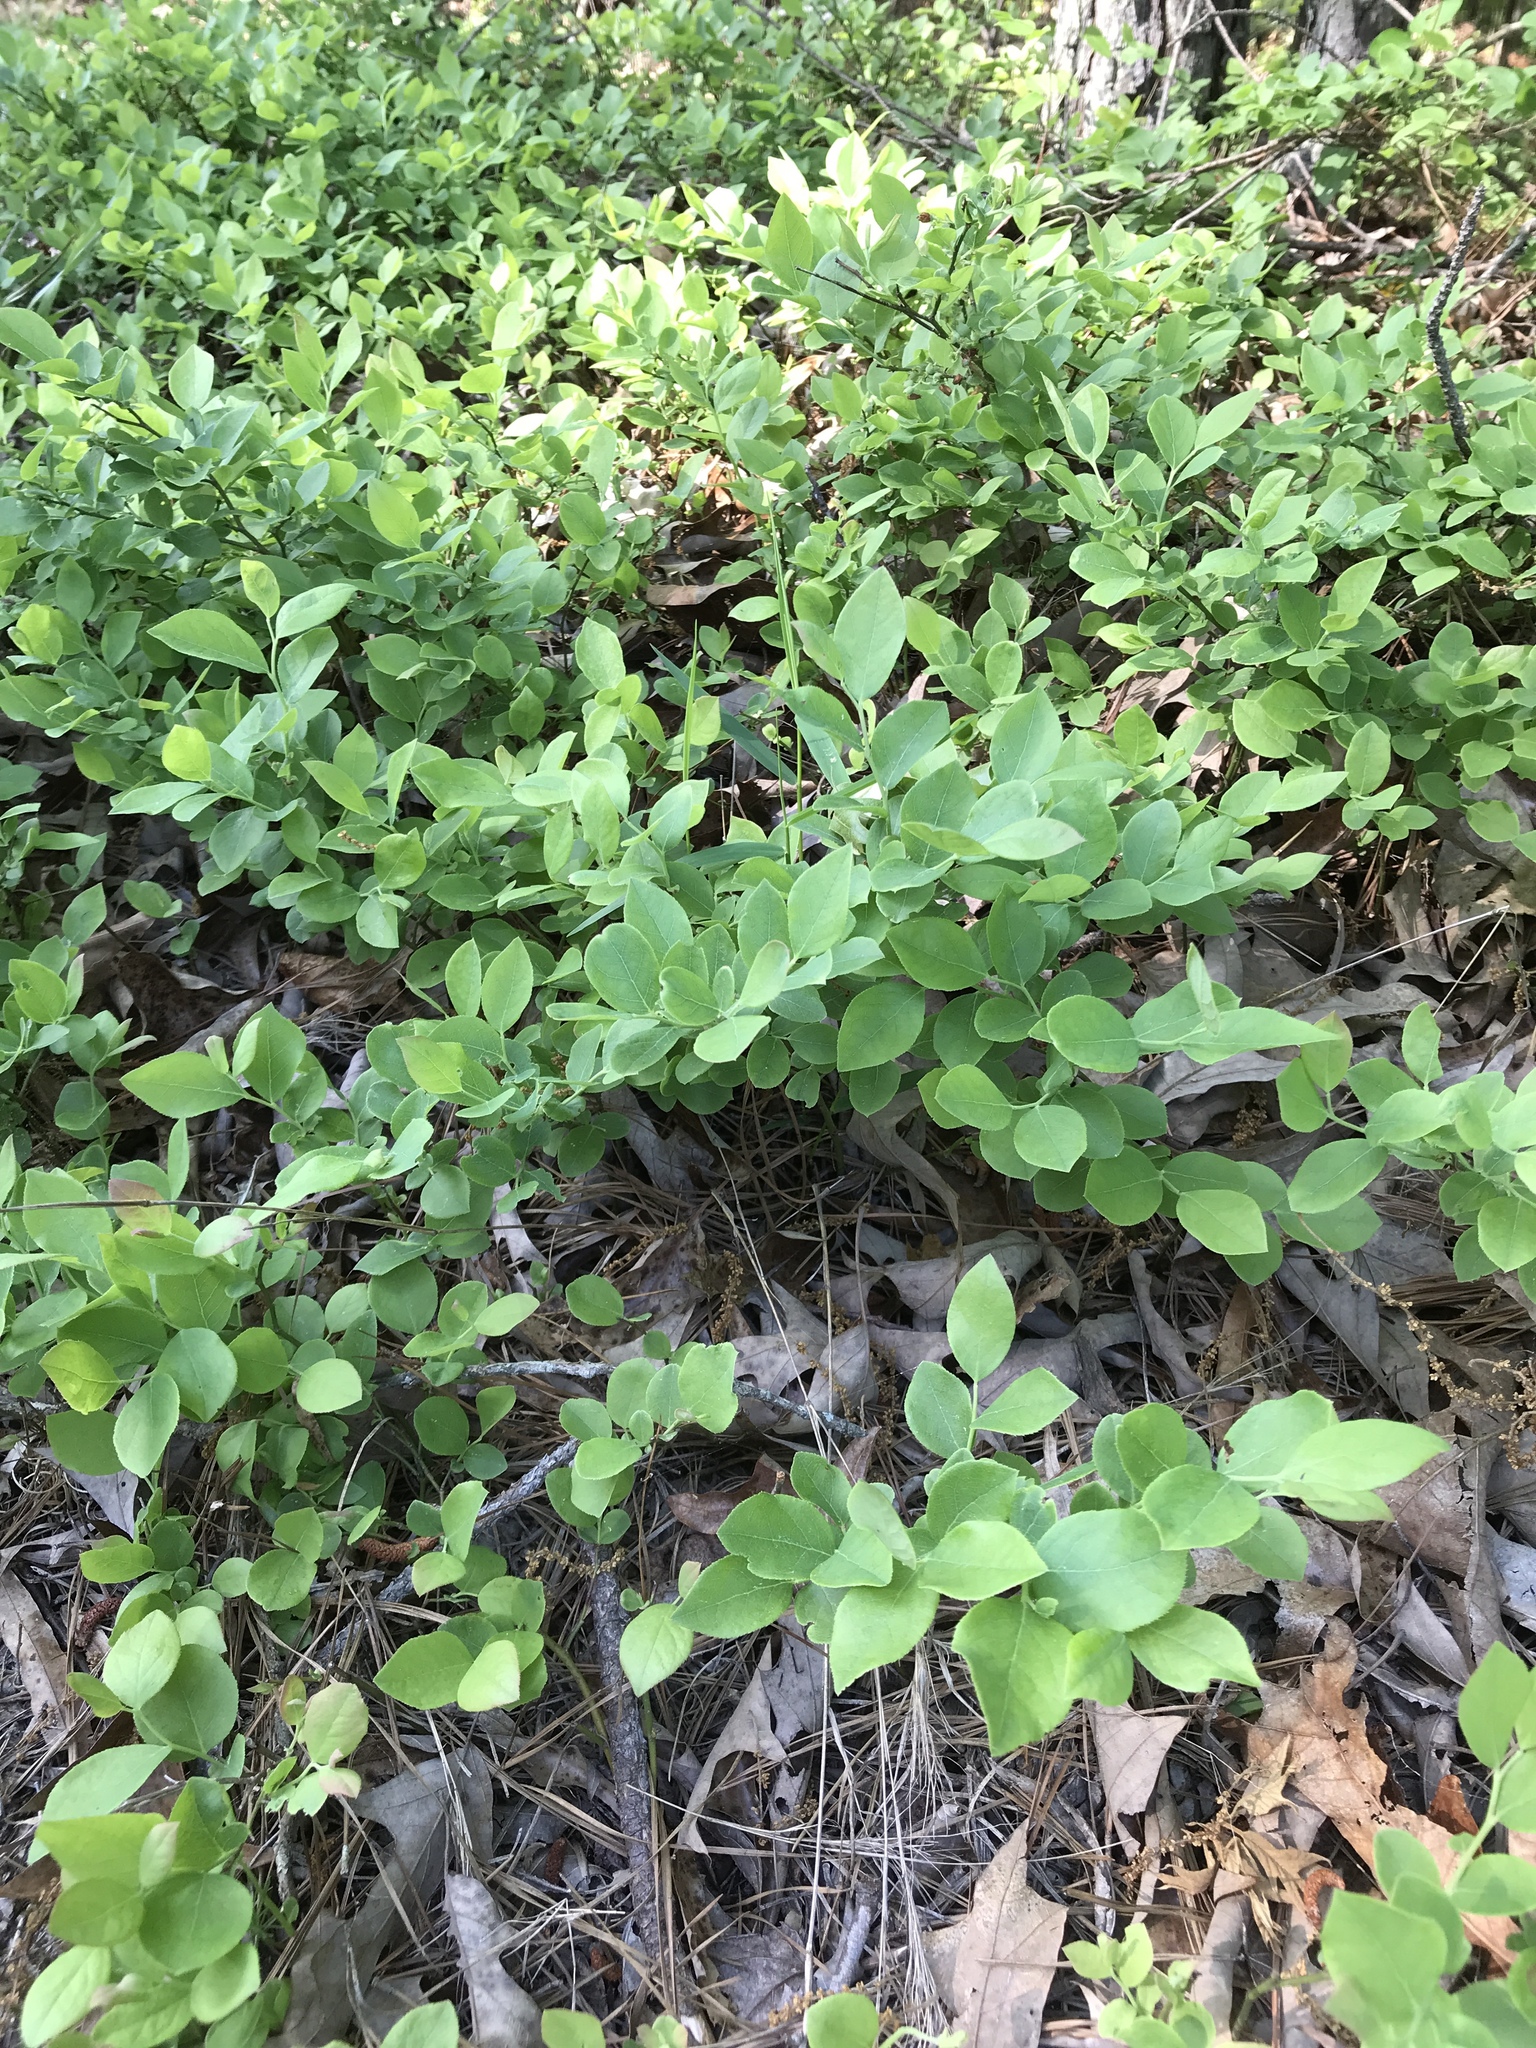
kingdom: Plantae
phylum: Tracheophyta
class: Magnoliopsida
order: Ericales
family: Ericaceae
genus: Vaccinium
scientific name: Vaccinium pallidum
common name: Blue ridge blueberry
